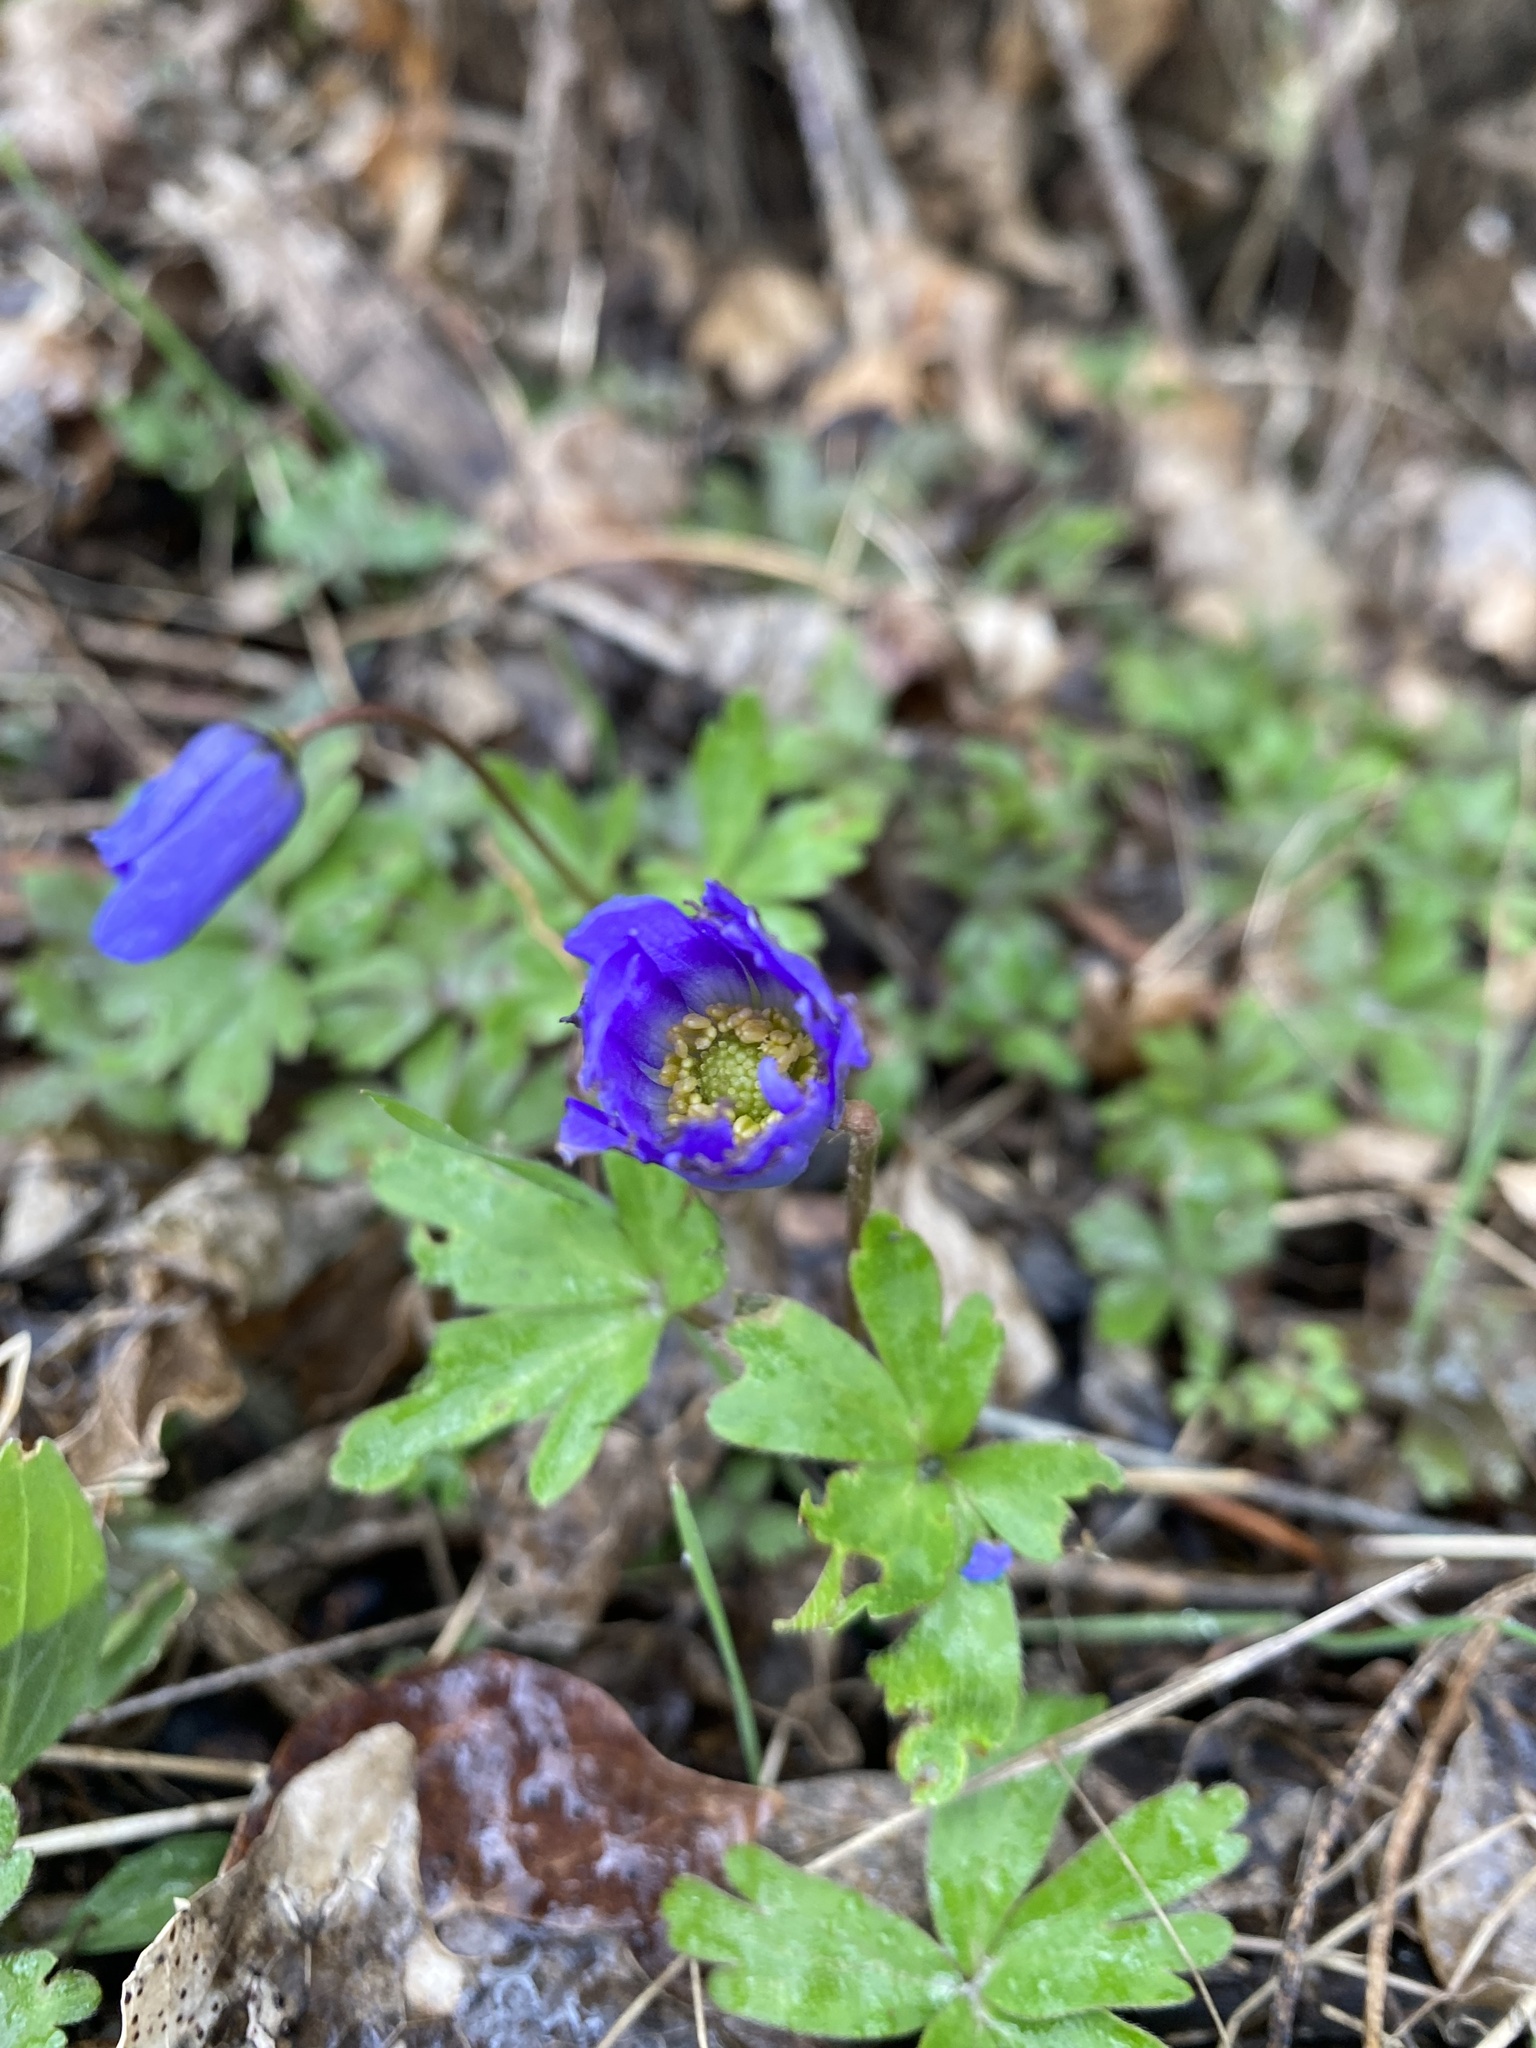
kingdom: Plantae
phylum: Tracheophyta
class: Magnoliopsida
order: Ranunculales
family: Ranunculaceae
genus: Anemone
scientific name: Anemone blanda
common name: Balkan anemone
